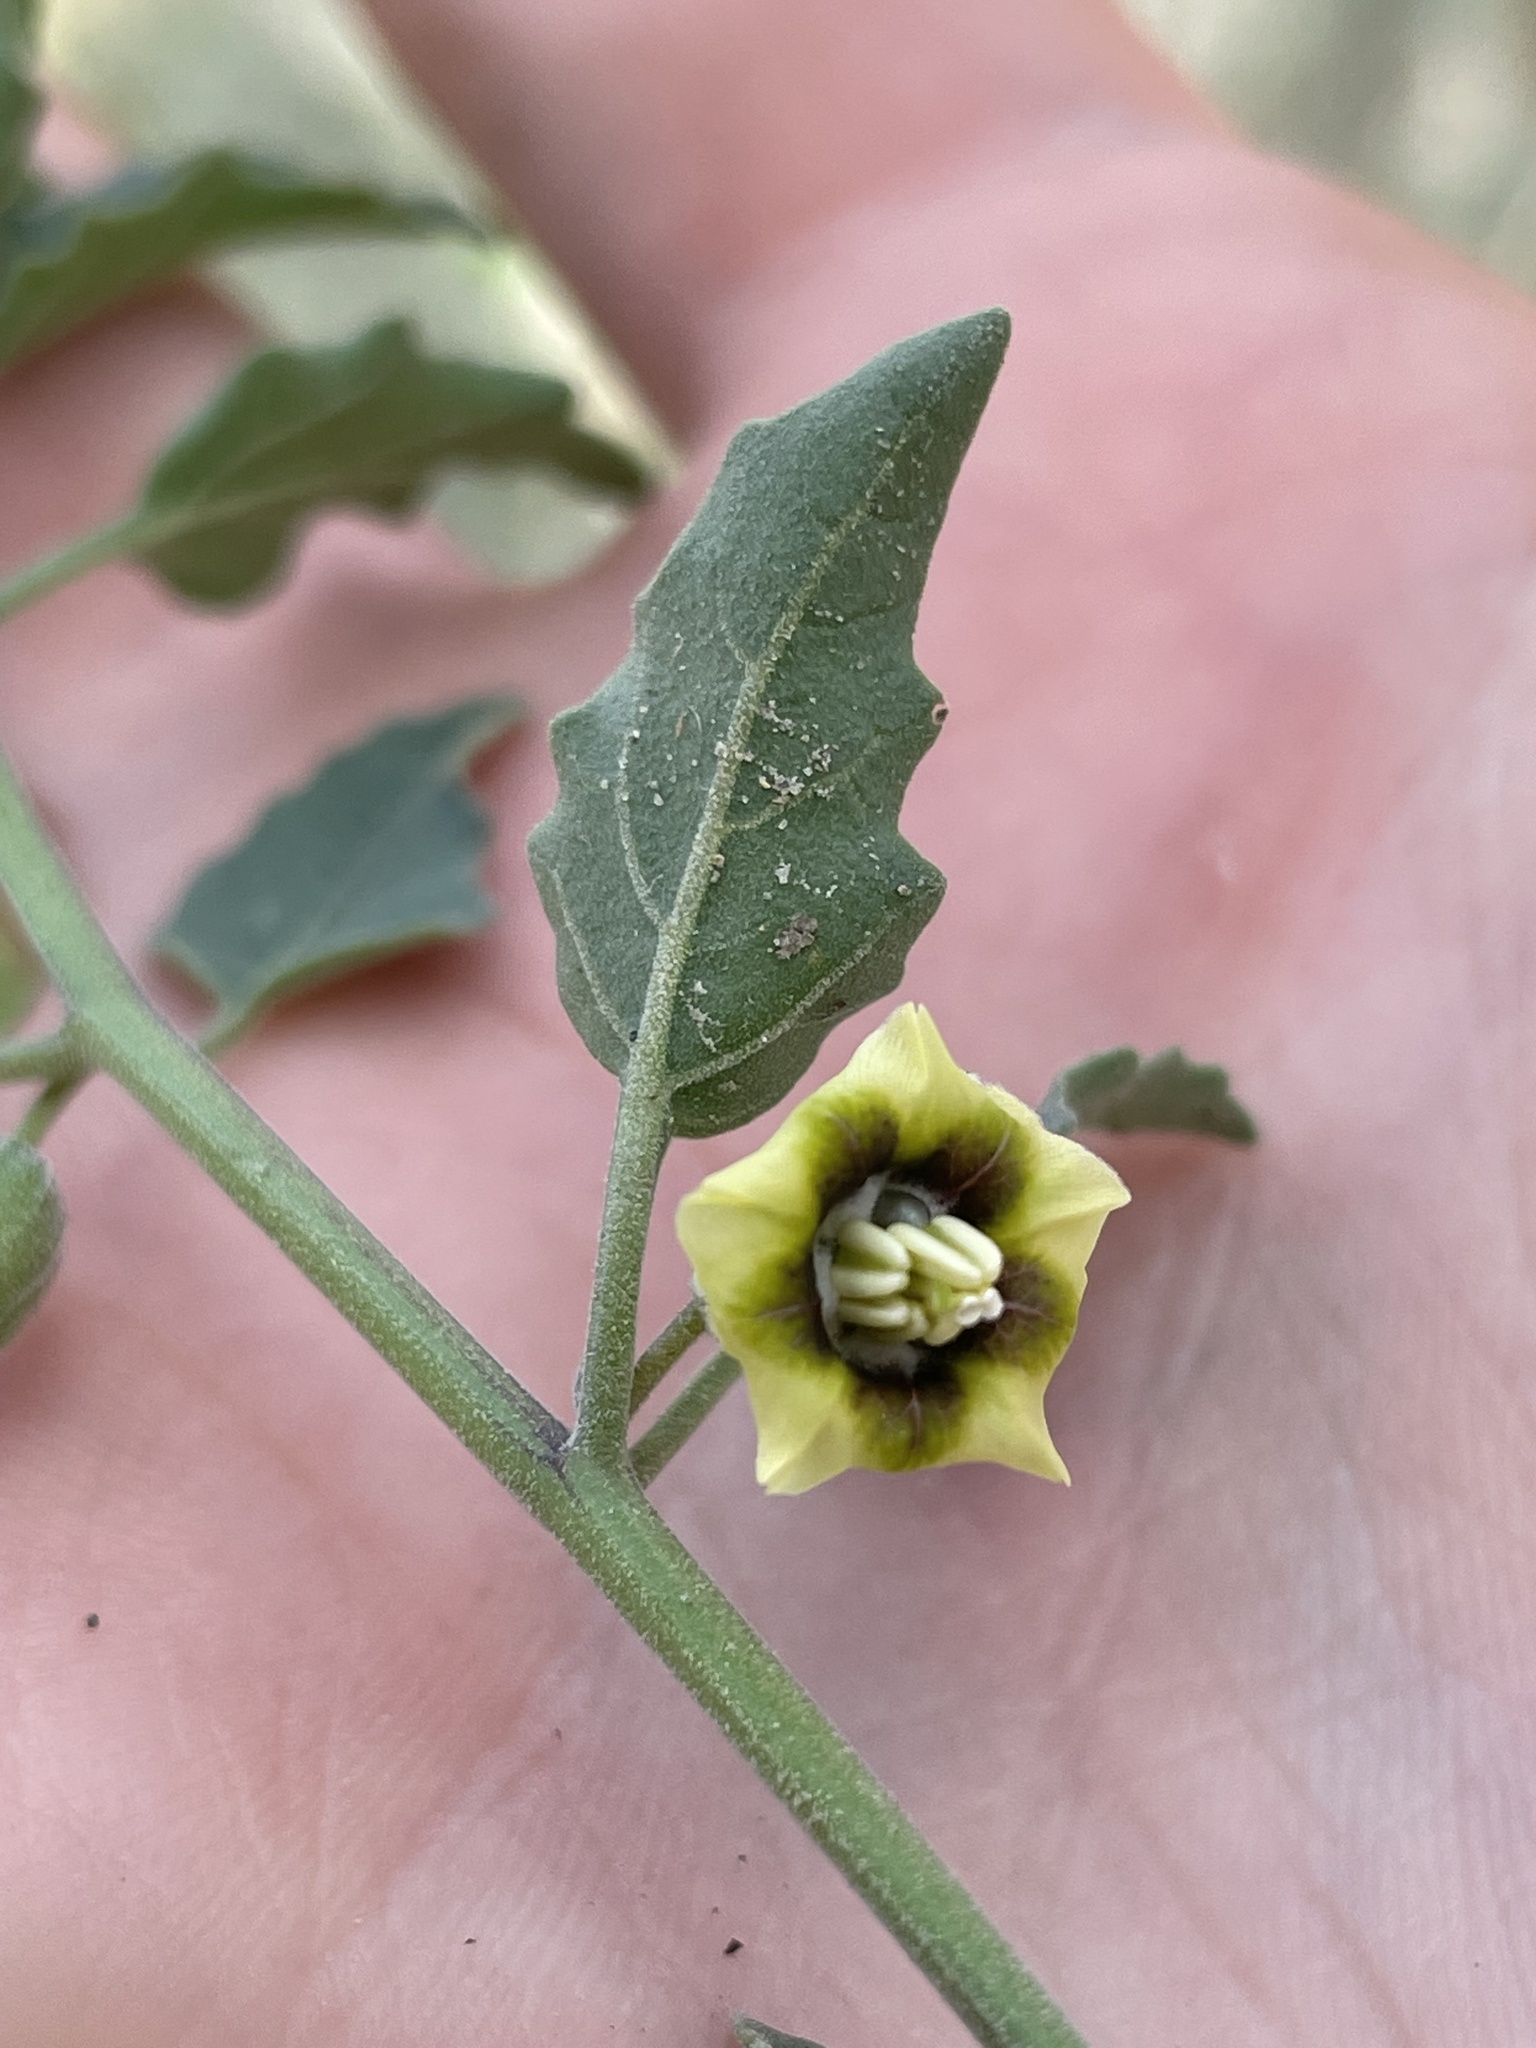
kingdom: Plantae
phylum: Tracheophyta
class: Magnoliopsida
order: Solanales
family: Solanaceae
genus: Physalis
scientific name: Physalis fendleri
